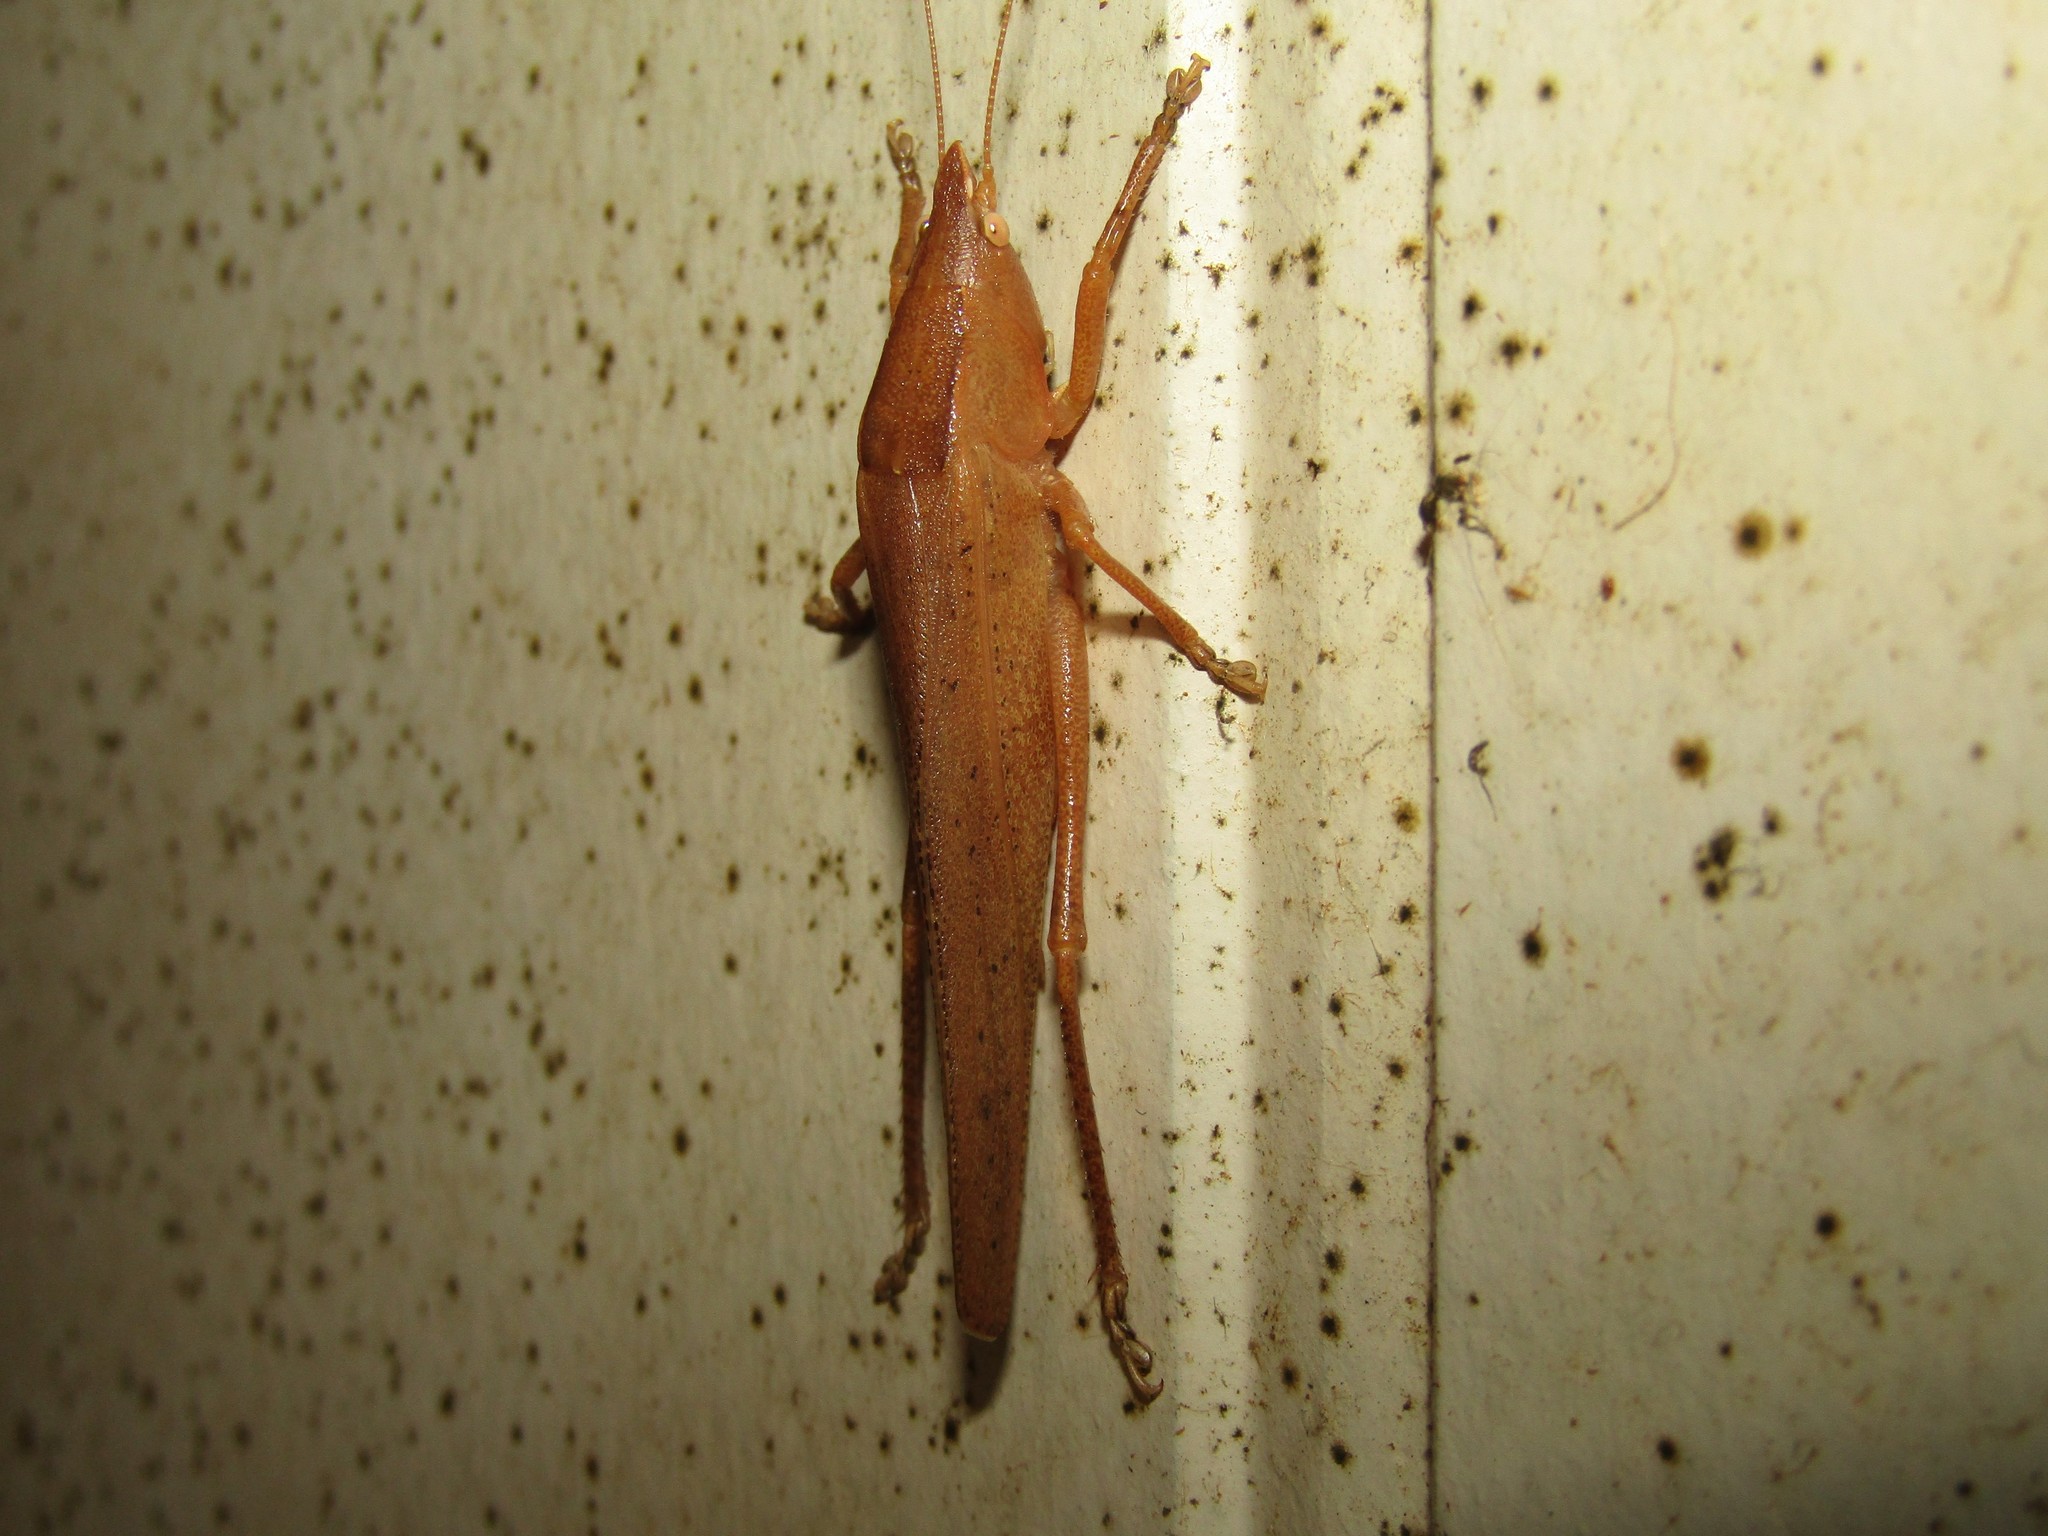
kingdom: Animalia
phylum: Arthropoda
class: Insecta
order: Orthoptera
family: Tettigoniidae
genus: Pyrgocorypha
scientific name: Pyrgocorypha uncinata
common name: Hook-faced conehead
